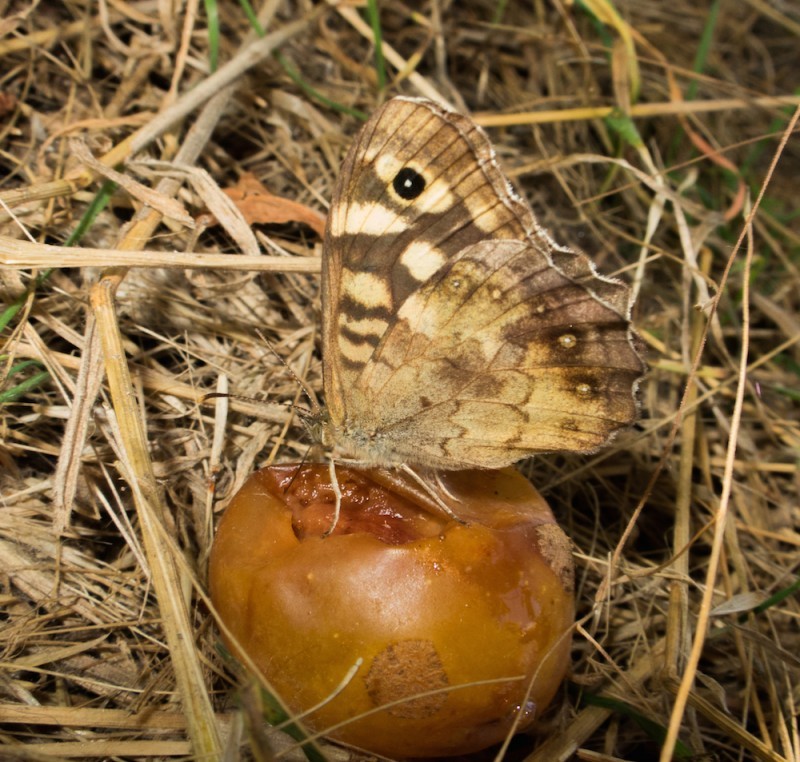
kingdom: Animalia
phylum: Arthropoda
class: Insecta
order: Lepidoptera
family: Nymphalidae
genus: Pararge
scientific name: Pararge aegeria
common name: Speckled wood
